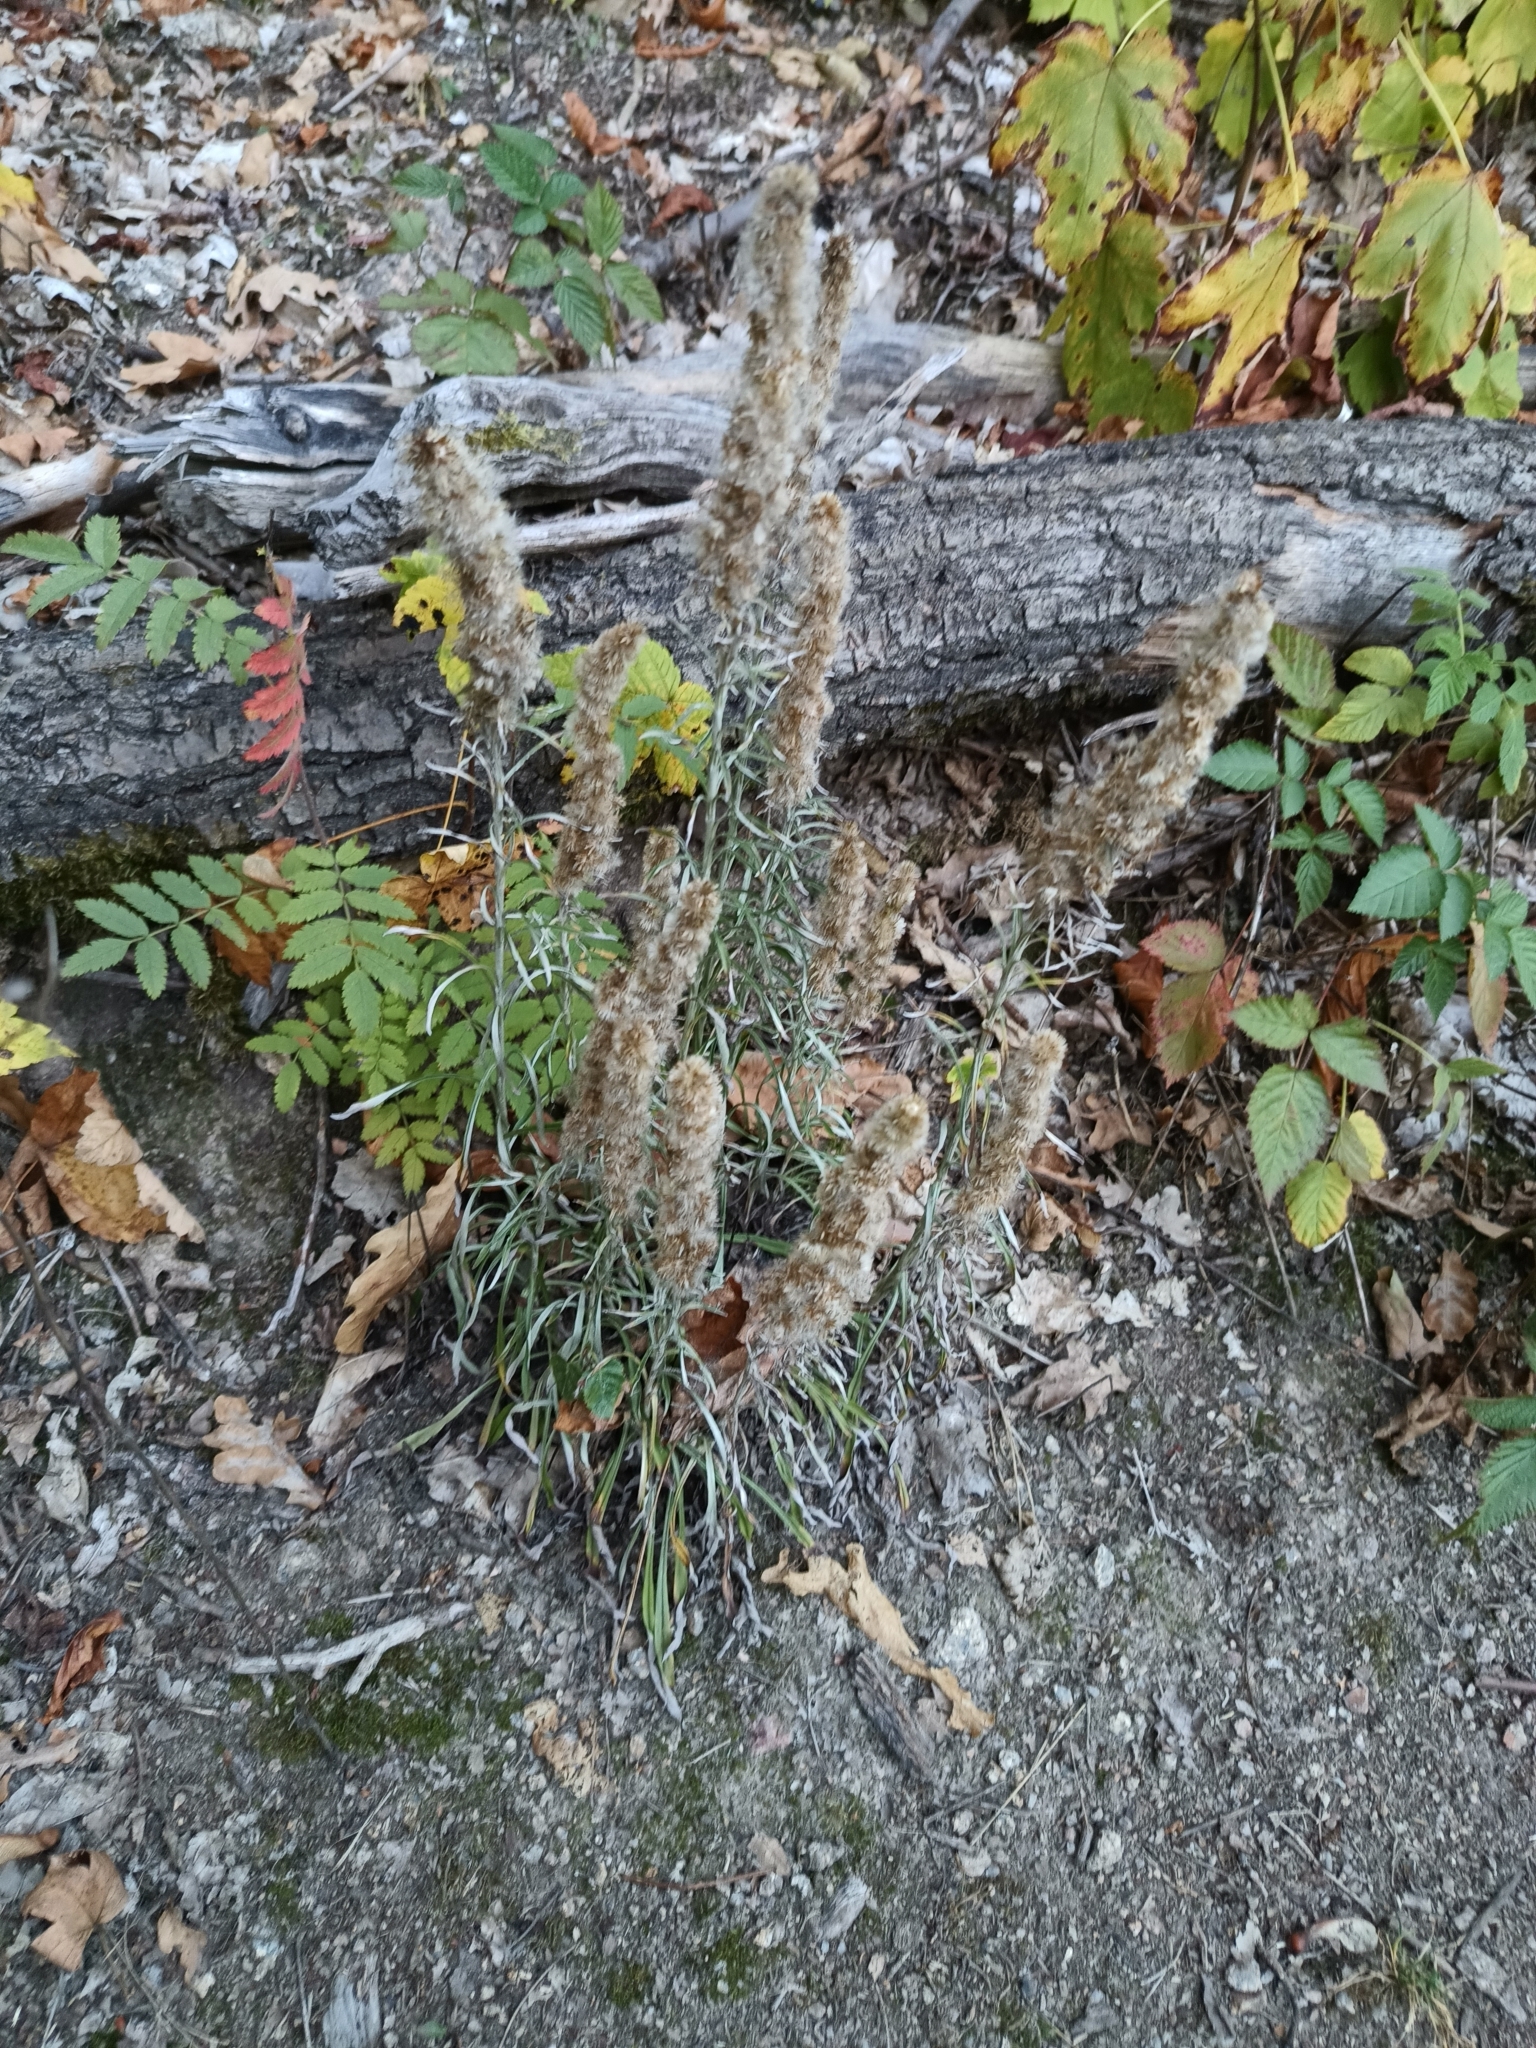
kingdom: Plantae
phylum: Tracheophyta
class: Magnoliopsida
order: Asterales
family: Asteraceae
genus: Omalotheca
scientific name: Omalotheca sylvatica
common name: Heath cudweed
